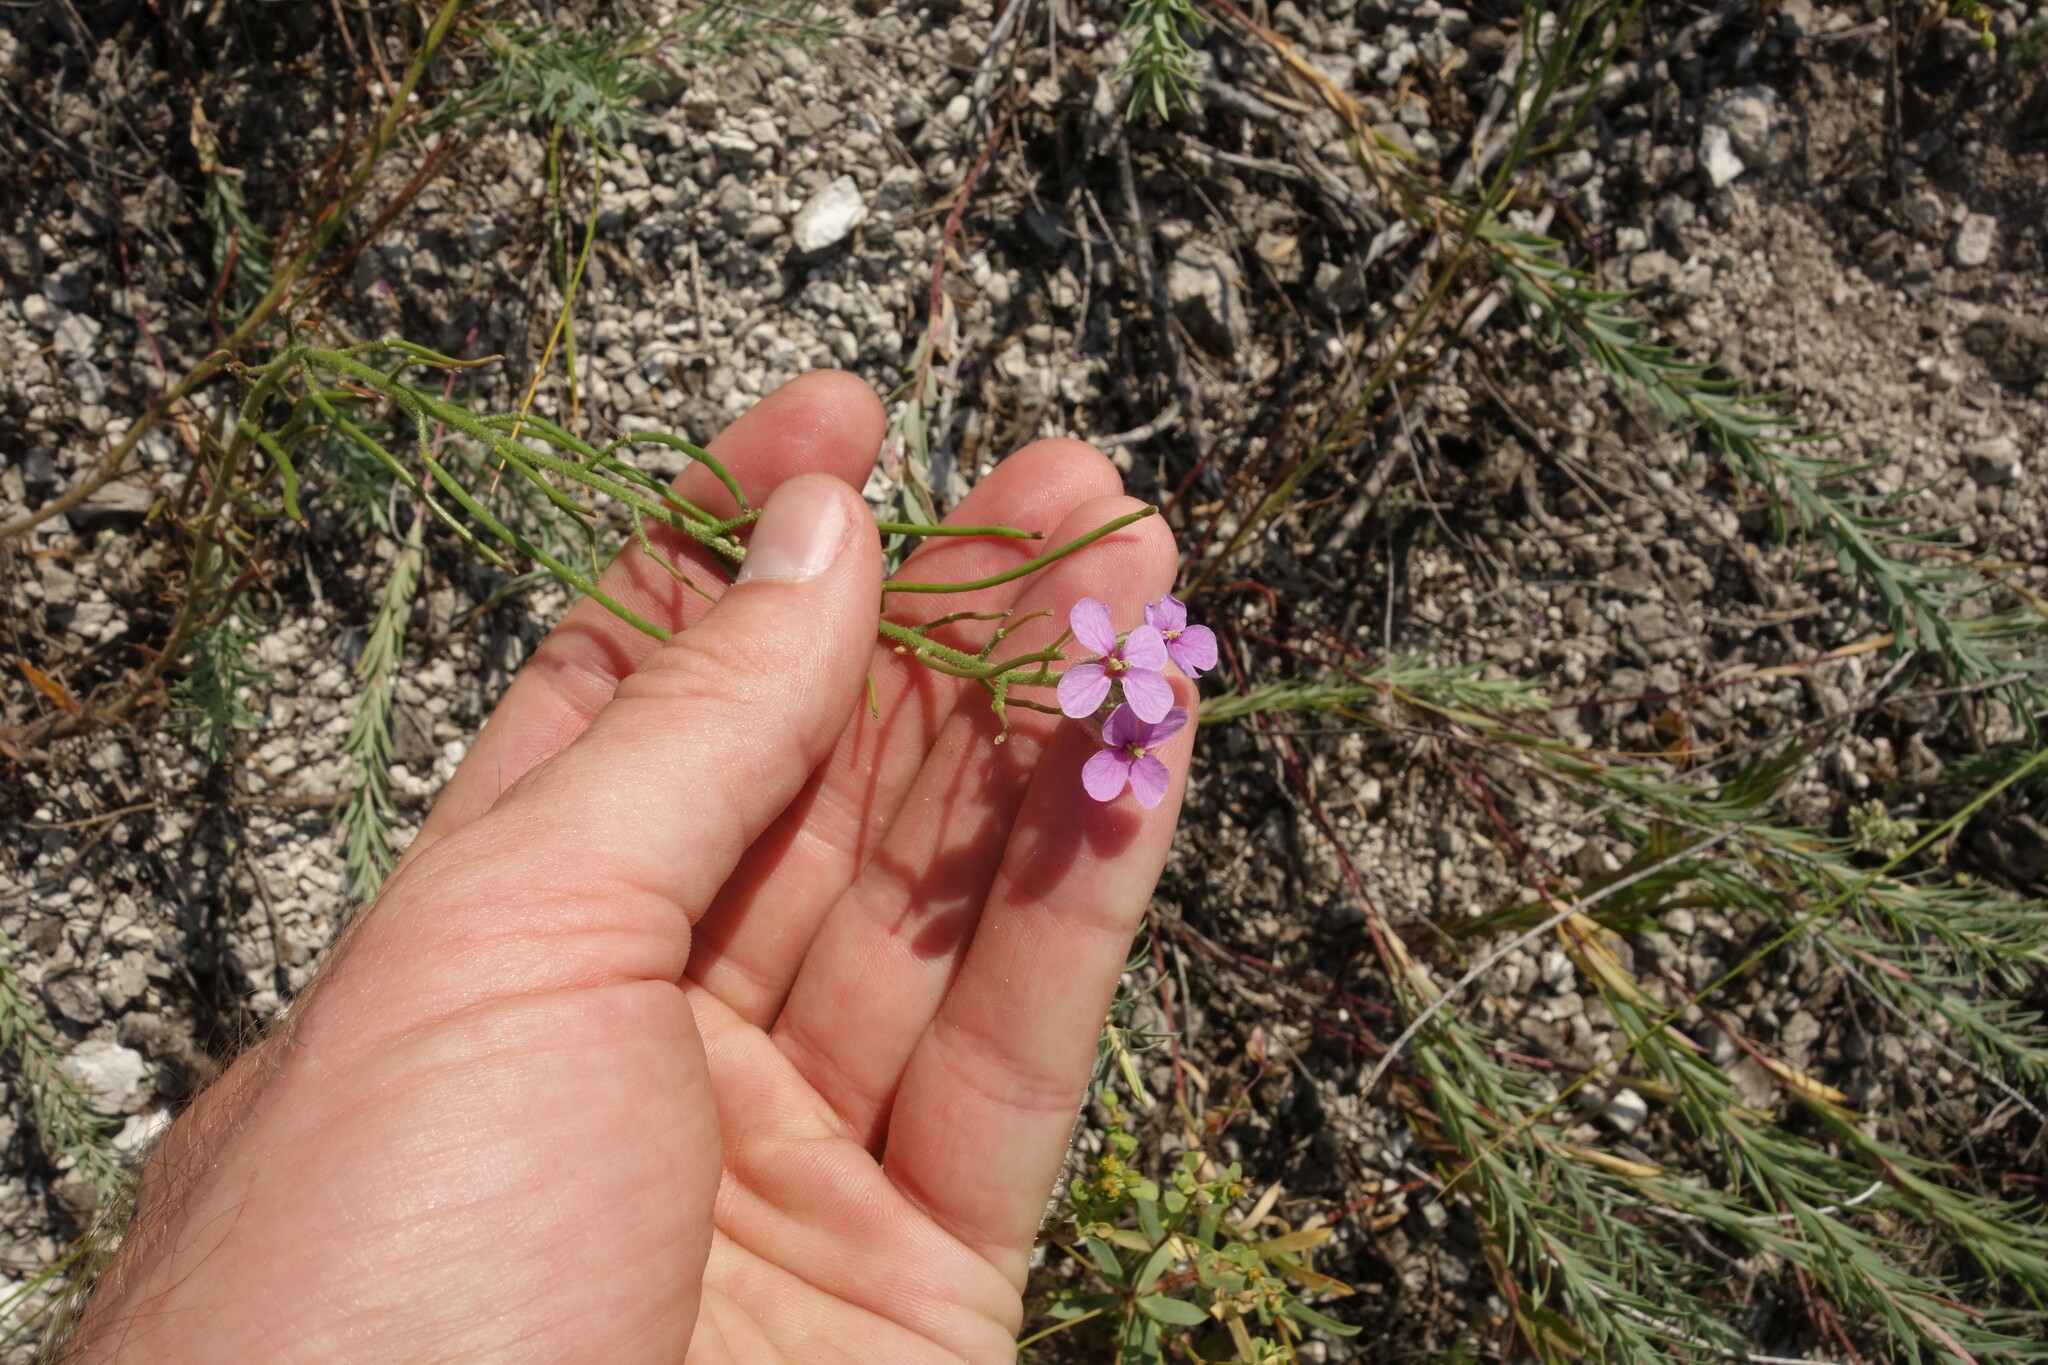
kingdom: Plantae
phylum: Tracheophyta
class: Magnoliopsida
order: Brassicales
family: Brassicaceae
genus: Clausia
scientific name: Clausia aprica
